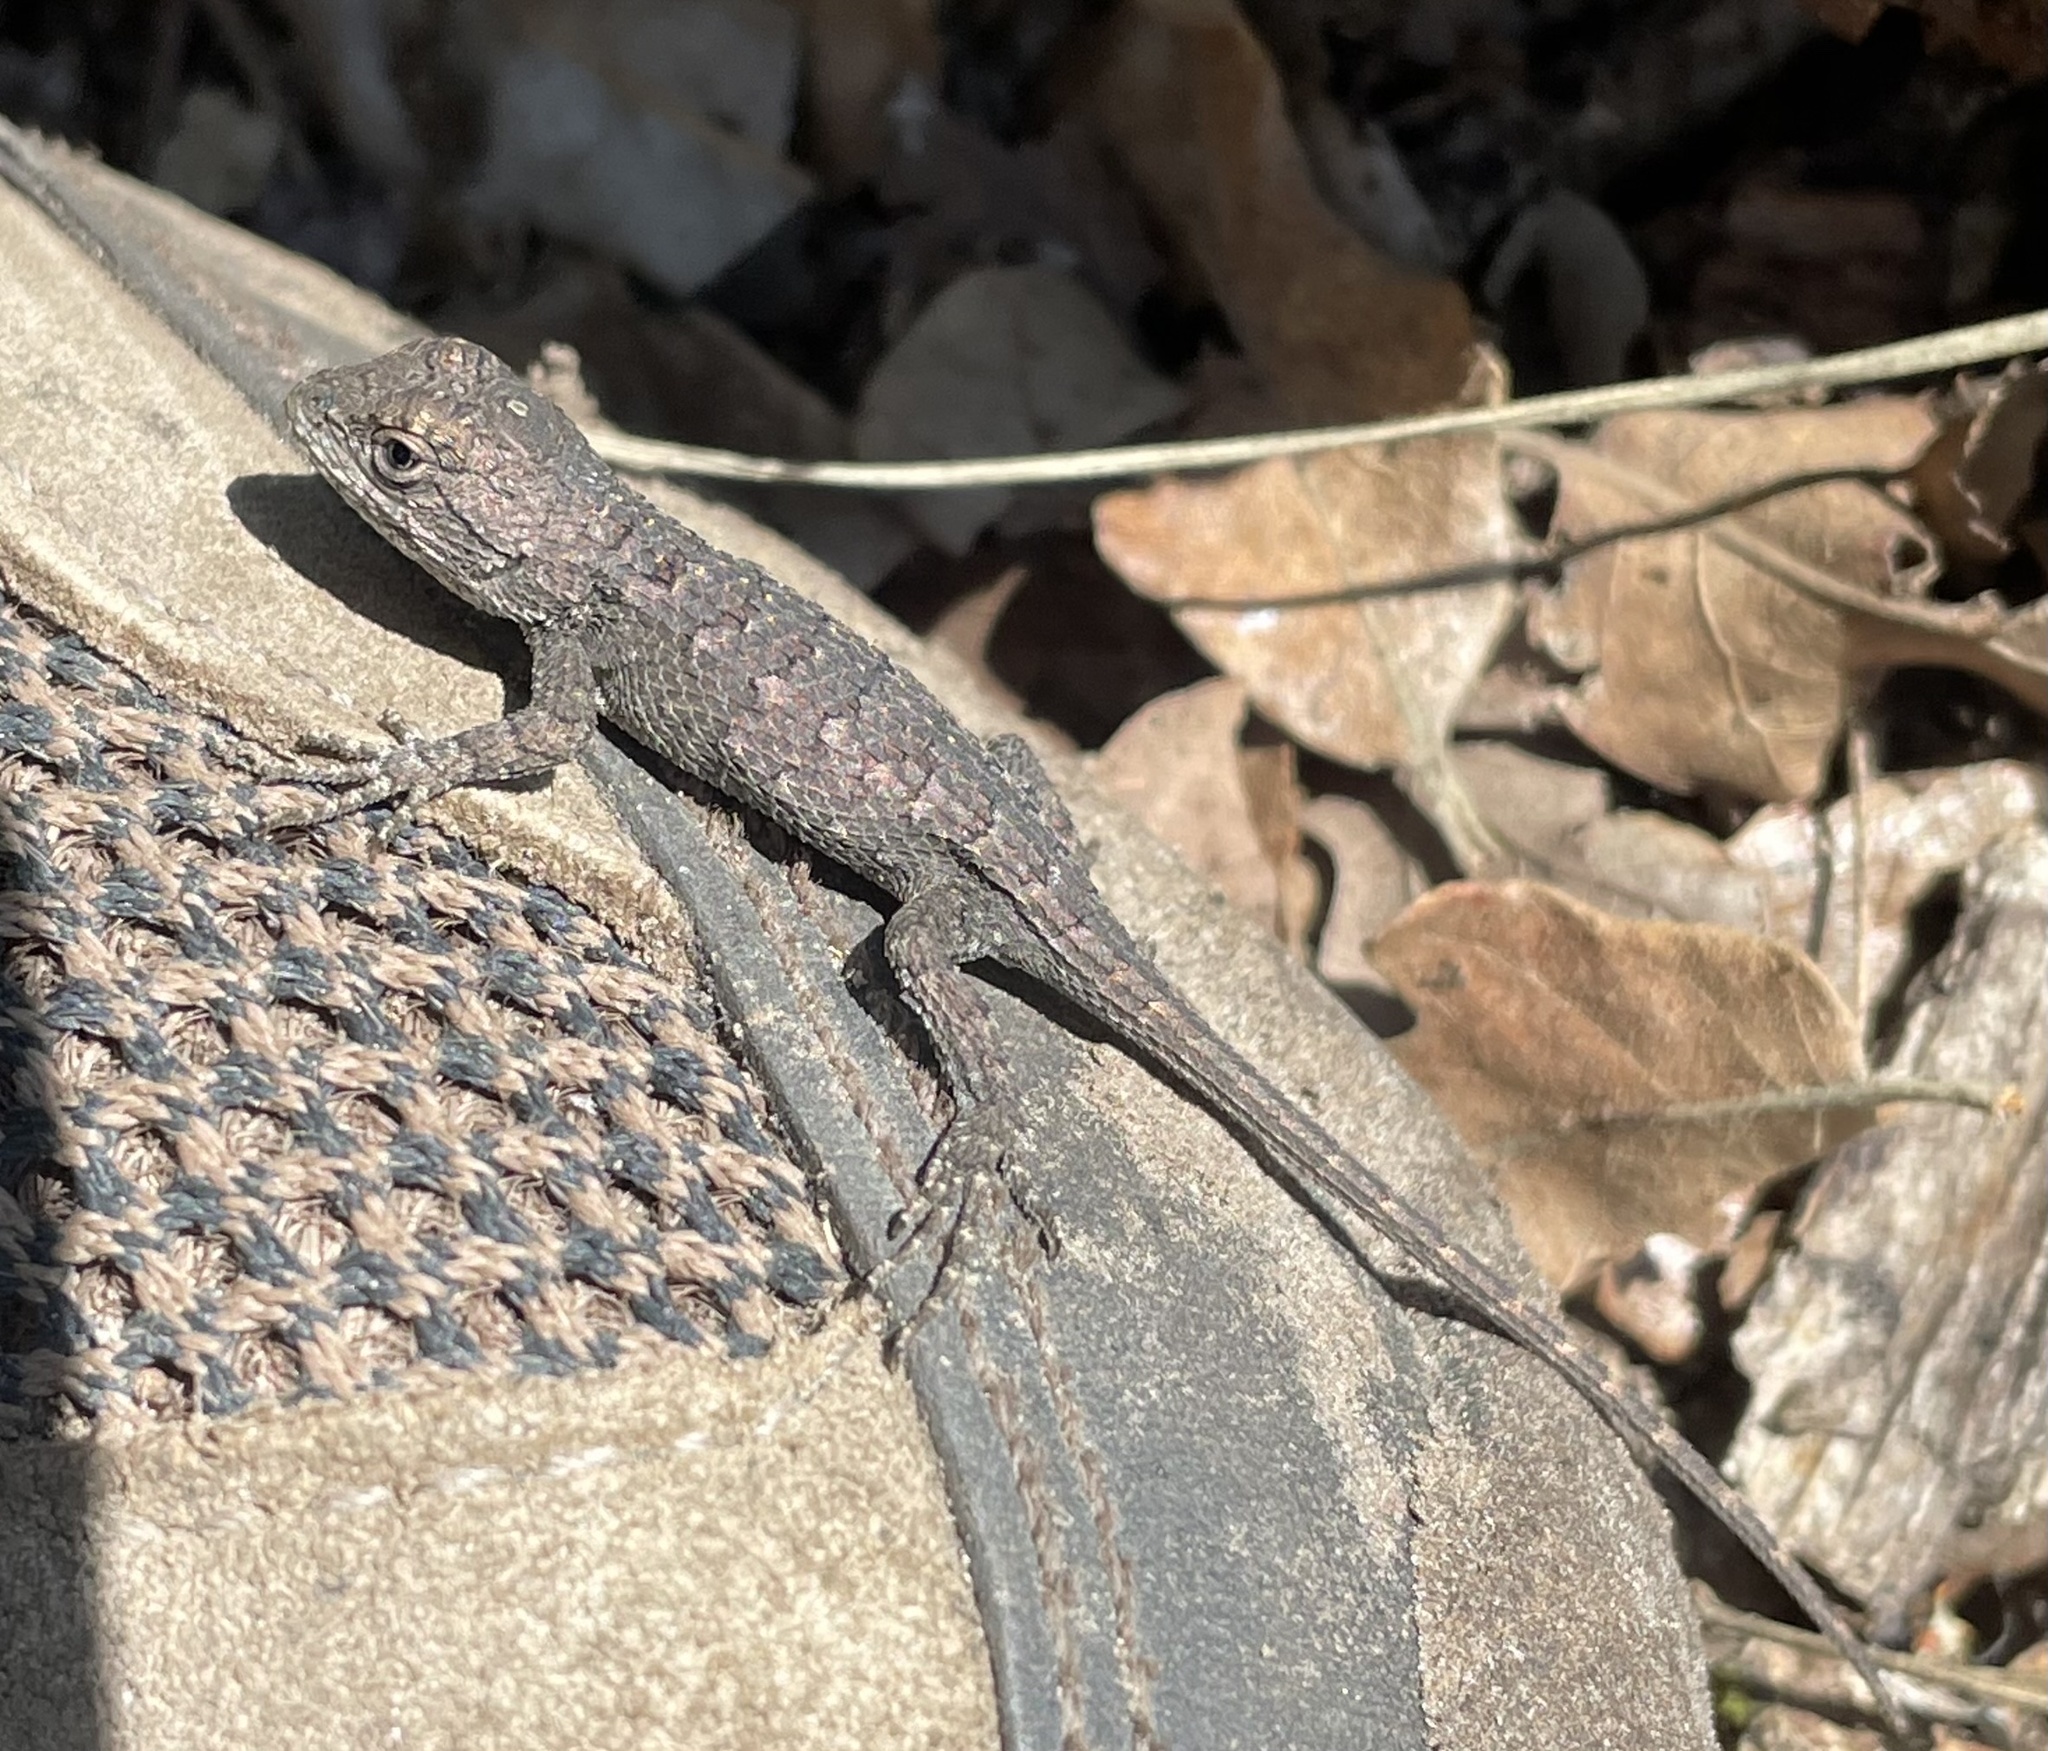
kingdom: Animalia
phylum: Chordata
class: Squamata
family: Phrynosomatidae
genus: Sceloporus
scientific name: Sceloporus olivaceus
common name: Texas spiny lizard
